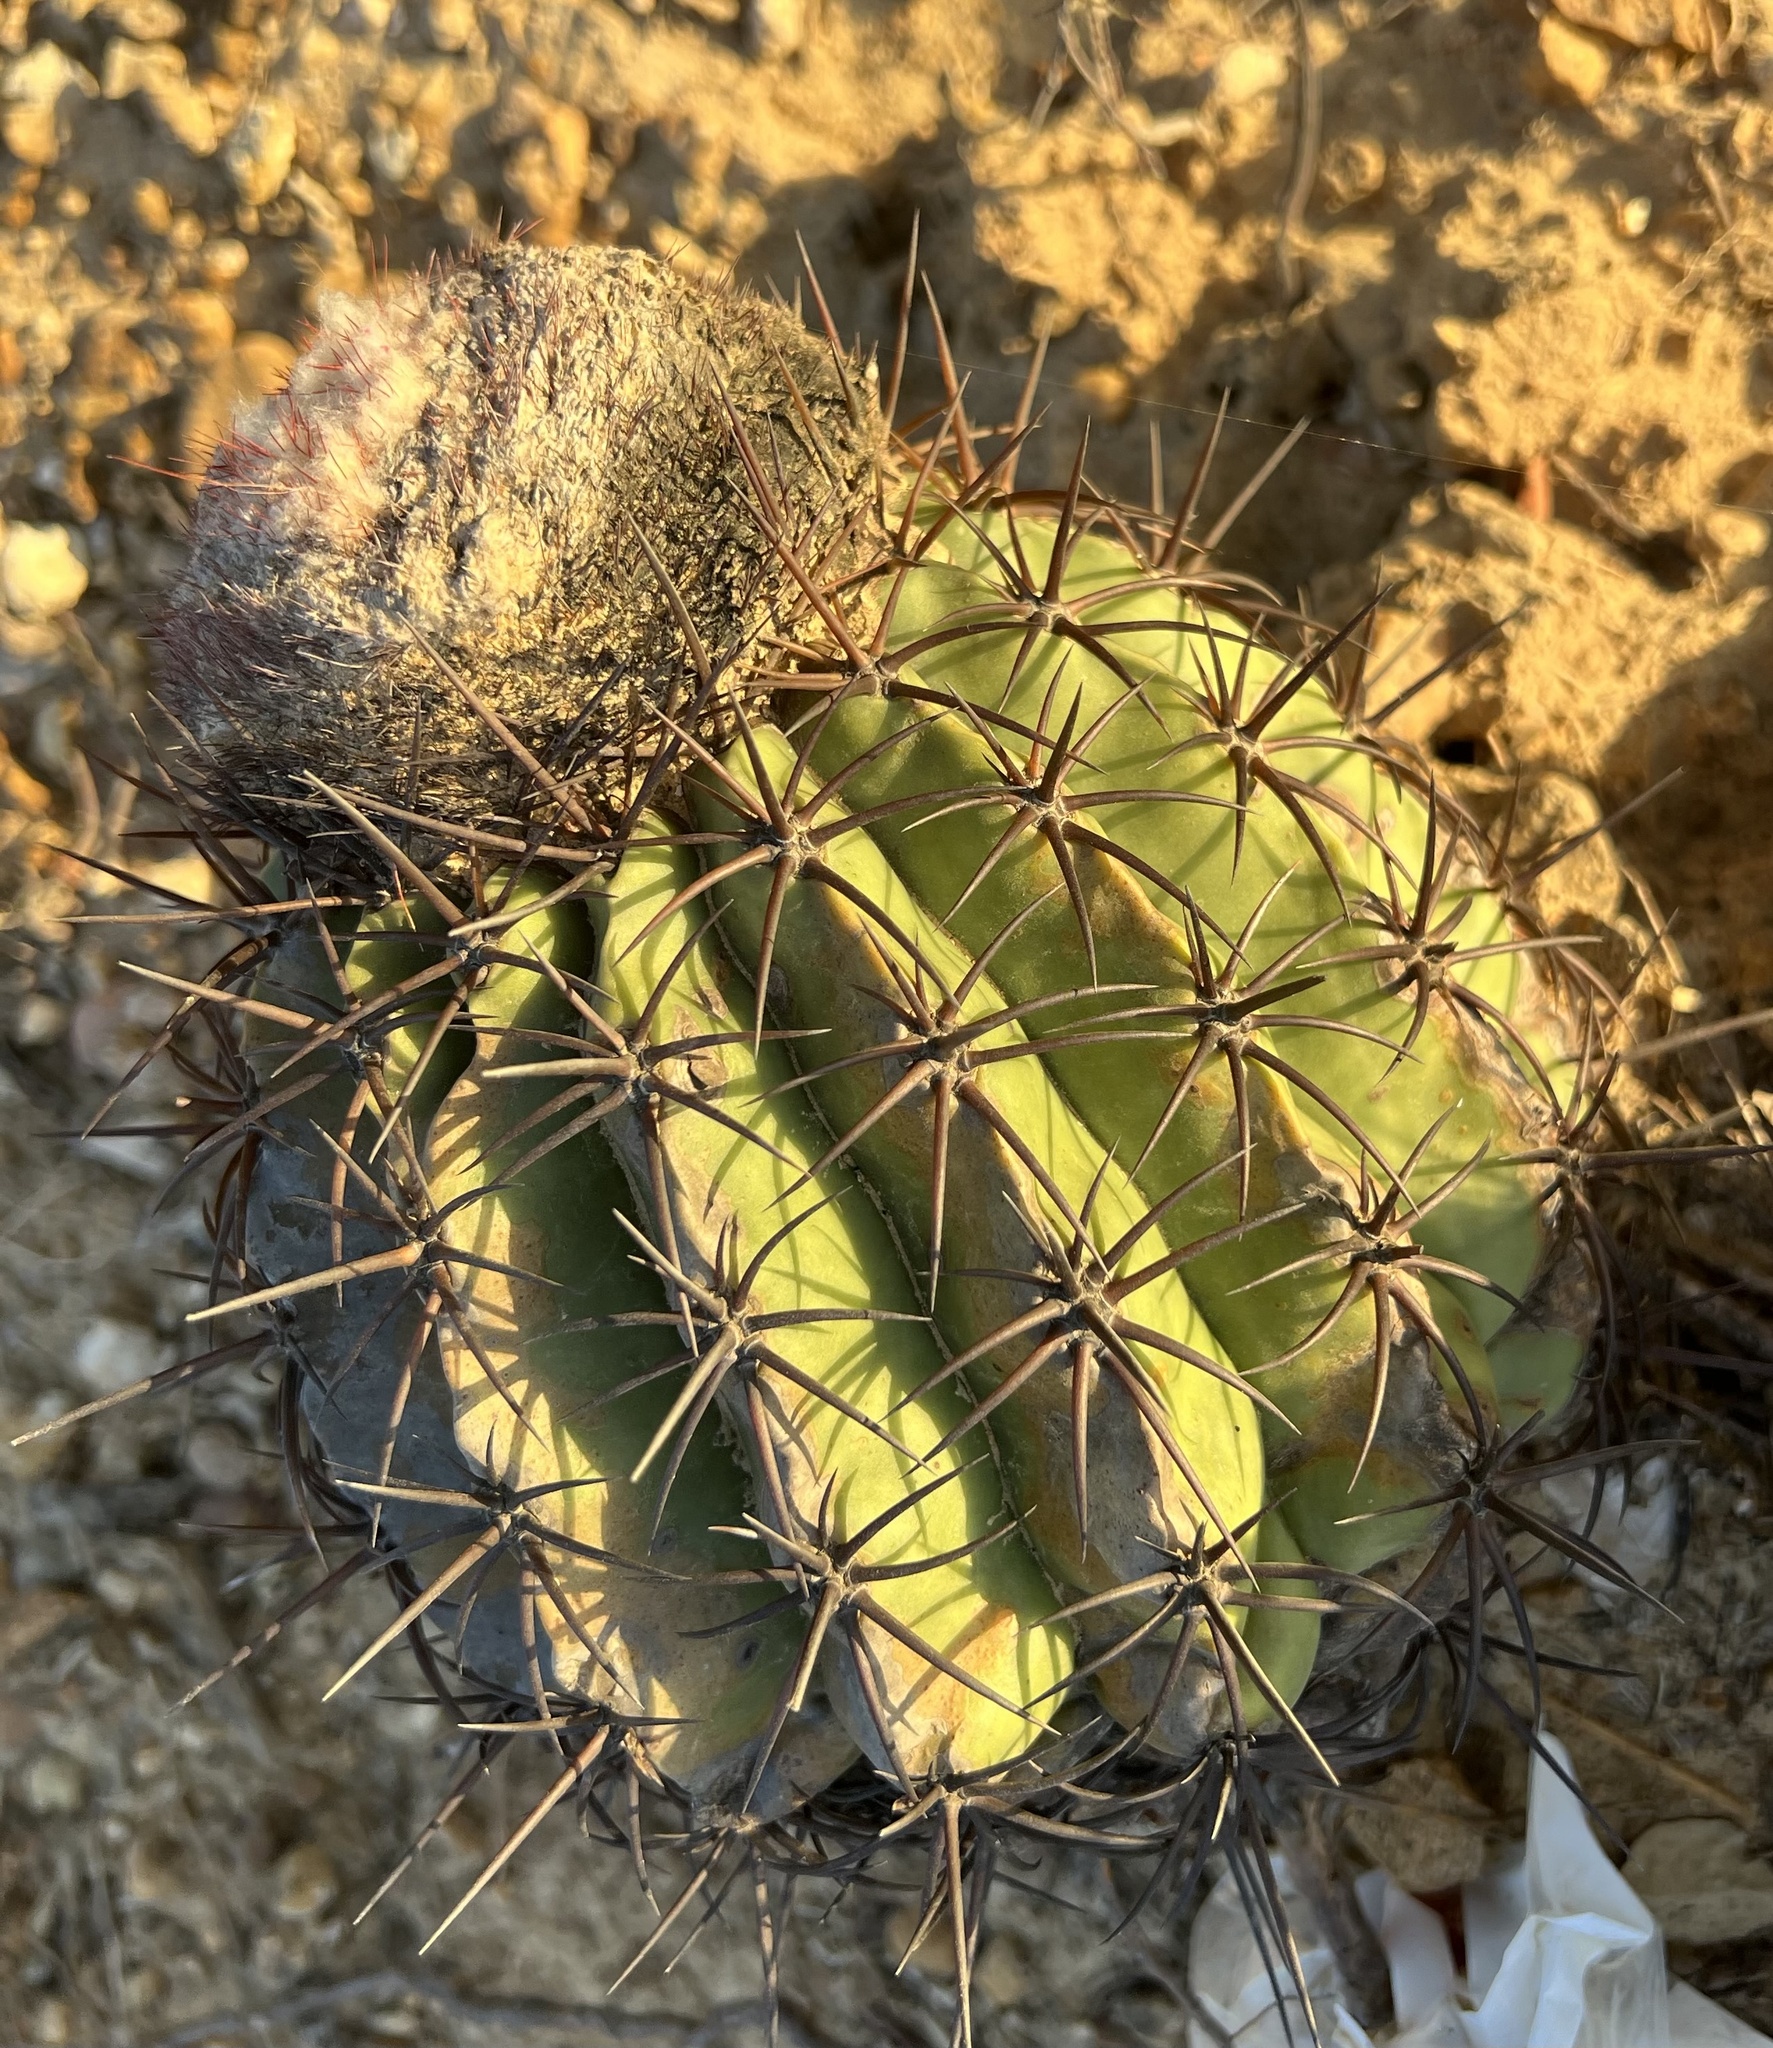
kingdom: Plantae
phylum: Tracheophyta
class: Magnoliopsida
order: Caryophyllales
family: Cactaceae
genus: Melocactus
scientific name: Melocactus curvispinus
